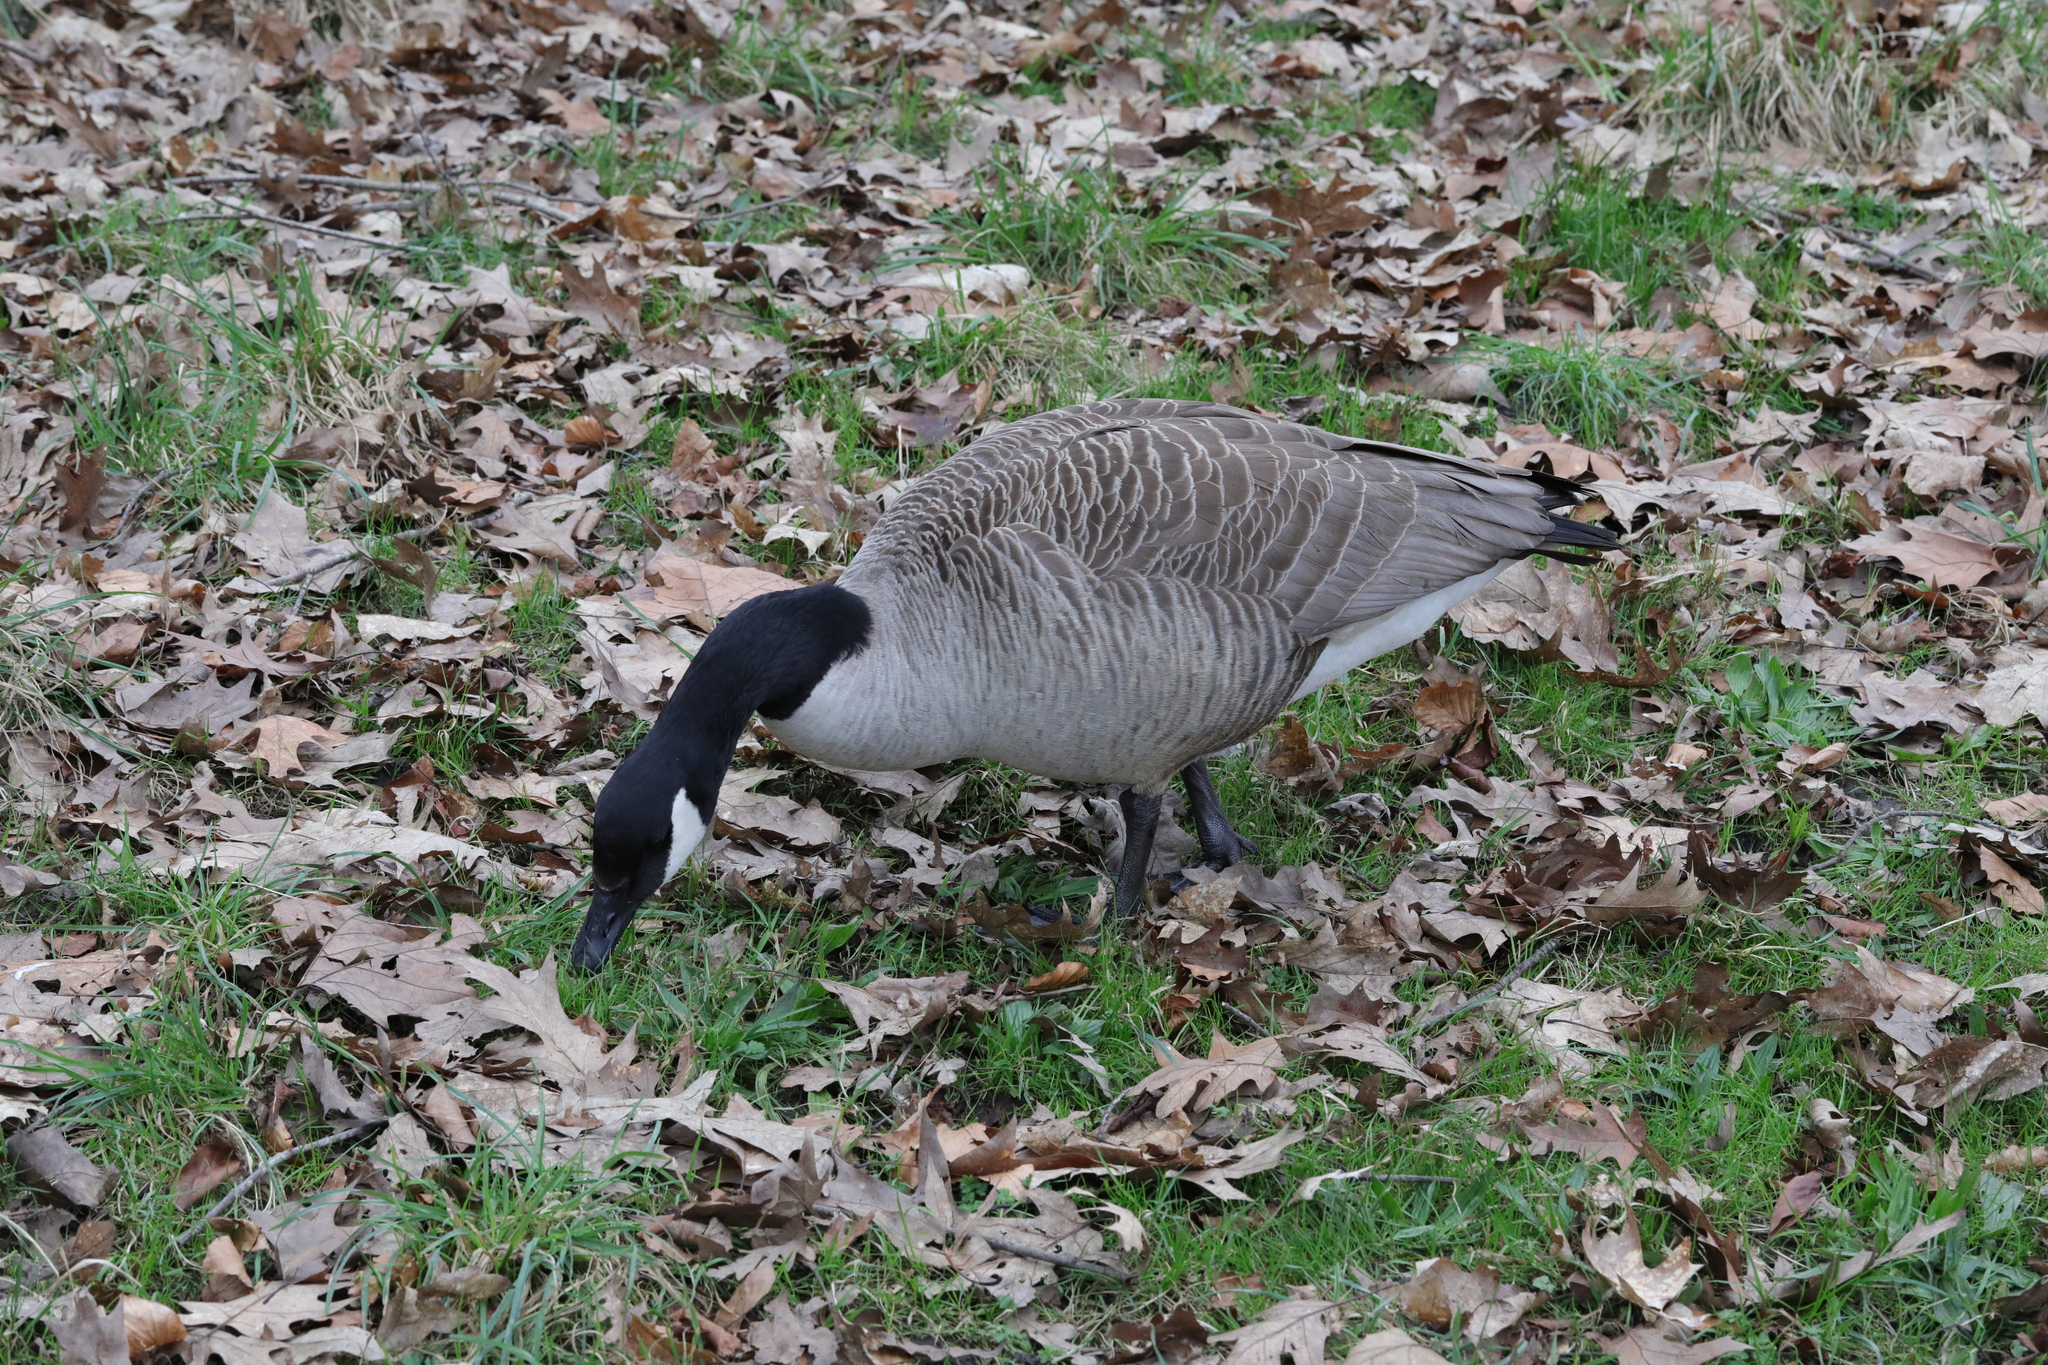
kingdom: Animalia
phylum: Chordata
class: Aves
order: Anseriformes
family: Anatidae
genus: Branta
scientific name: Branta canadensis
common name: Canada goose
